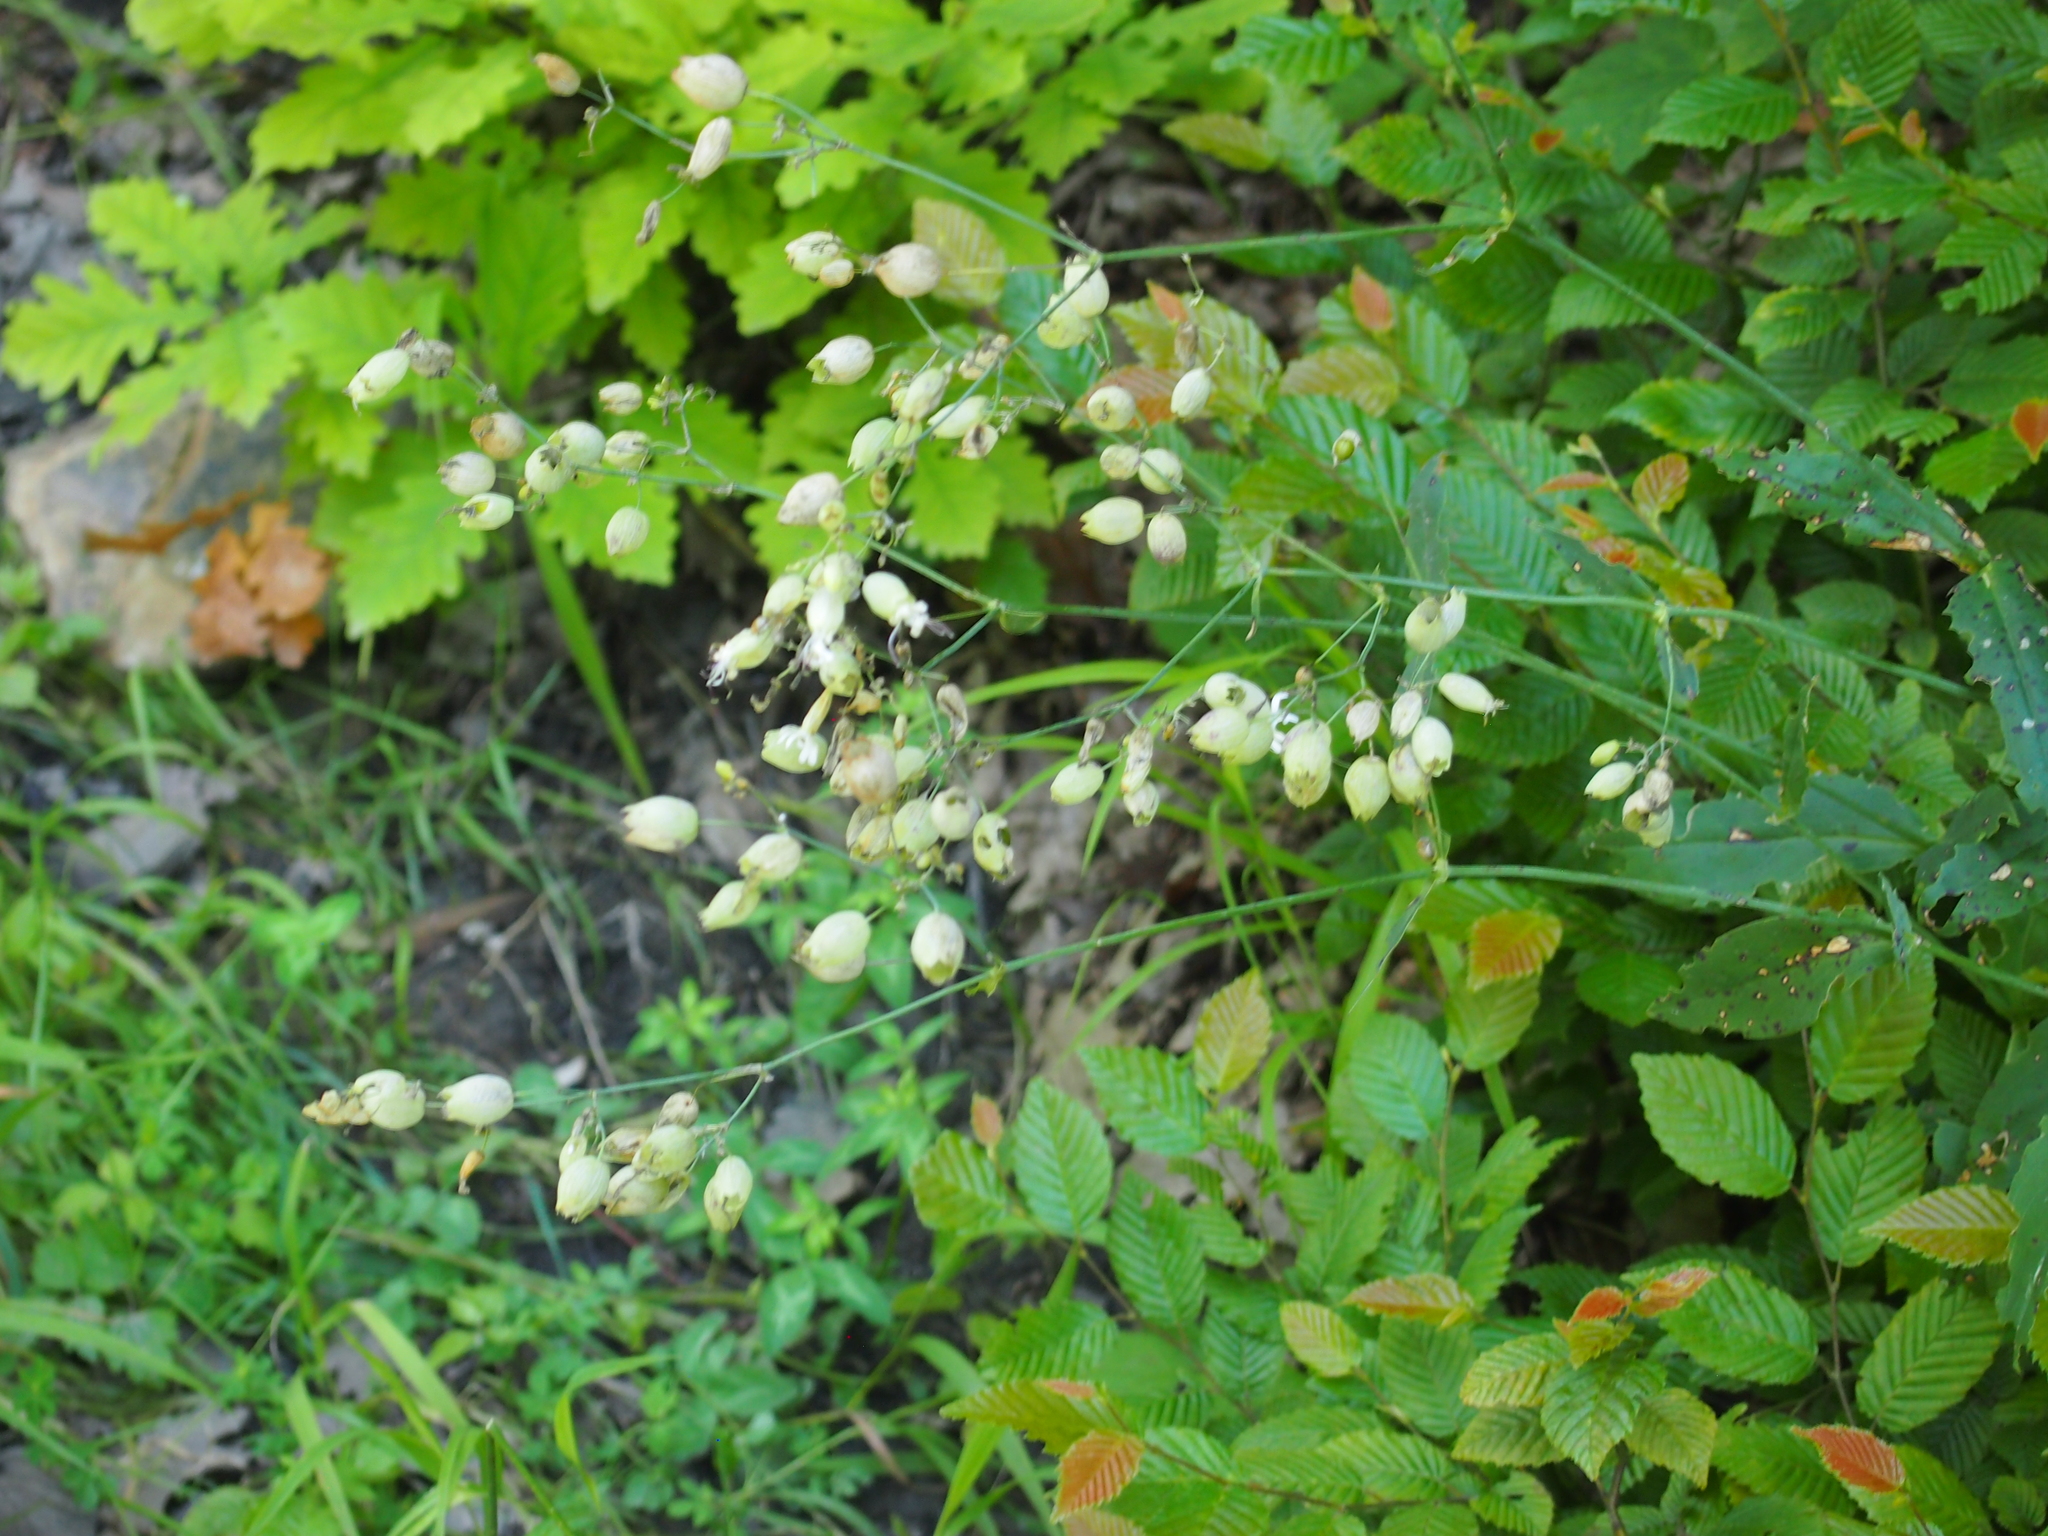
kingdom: Plantae
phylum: Tracheophyta
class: Magnoliopsida
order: Caryophyllales
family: Caryophyllaceae
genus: Silene
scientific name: Silene vulgaris
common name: Bladder campion
